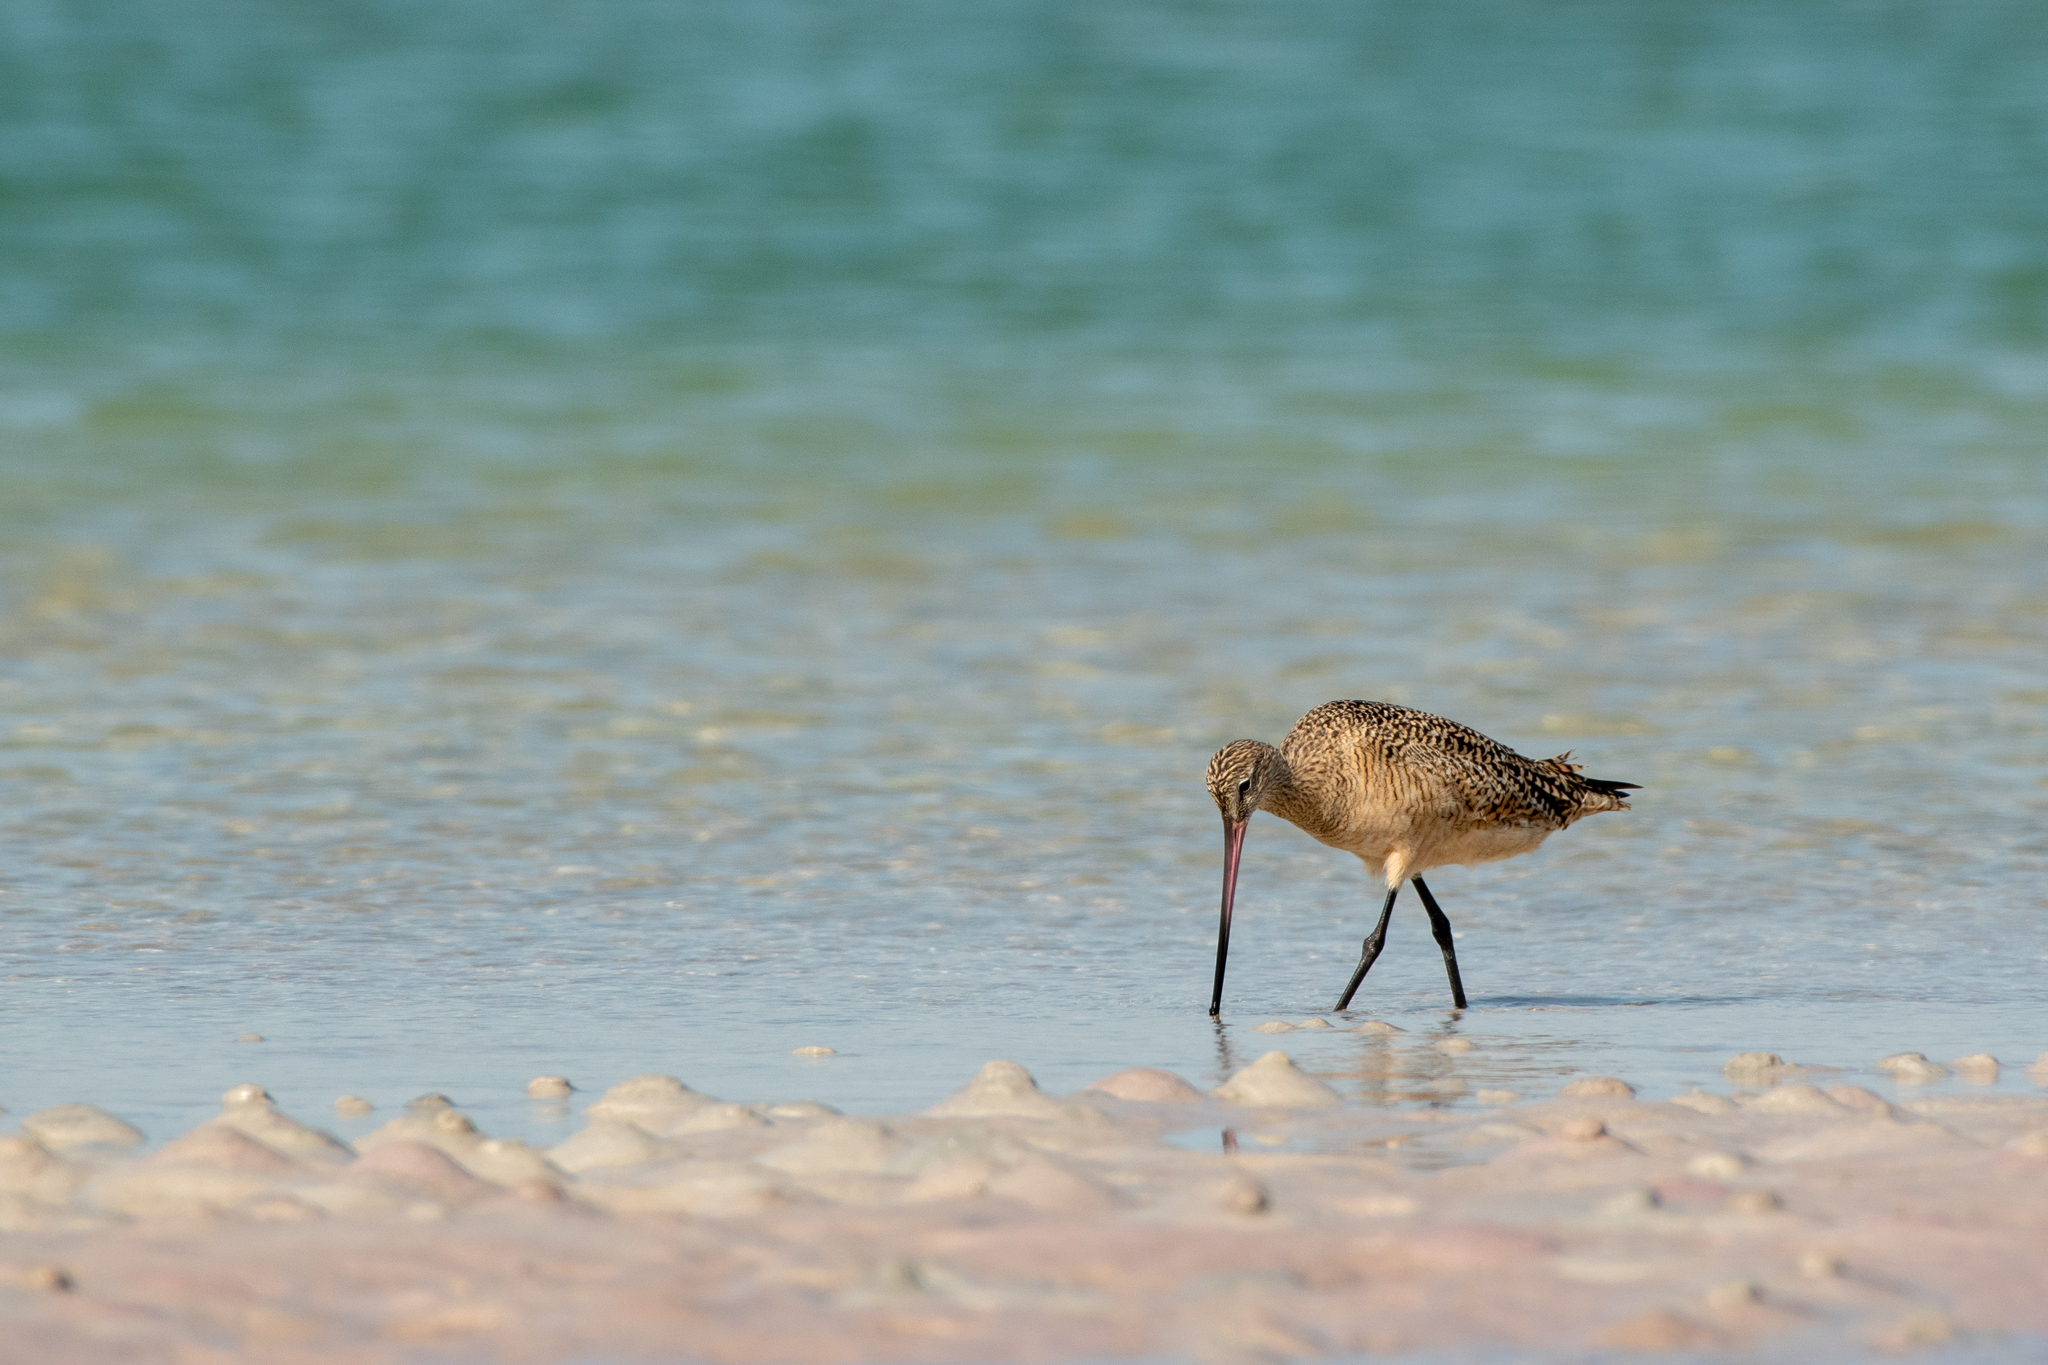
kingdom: Animalia
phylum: Chordata
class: Aves
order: Charadriiformes
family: Scolopacidae
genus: Limosa
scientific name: Limosa fedoa
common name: Marbled godwit
